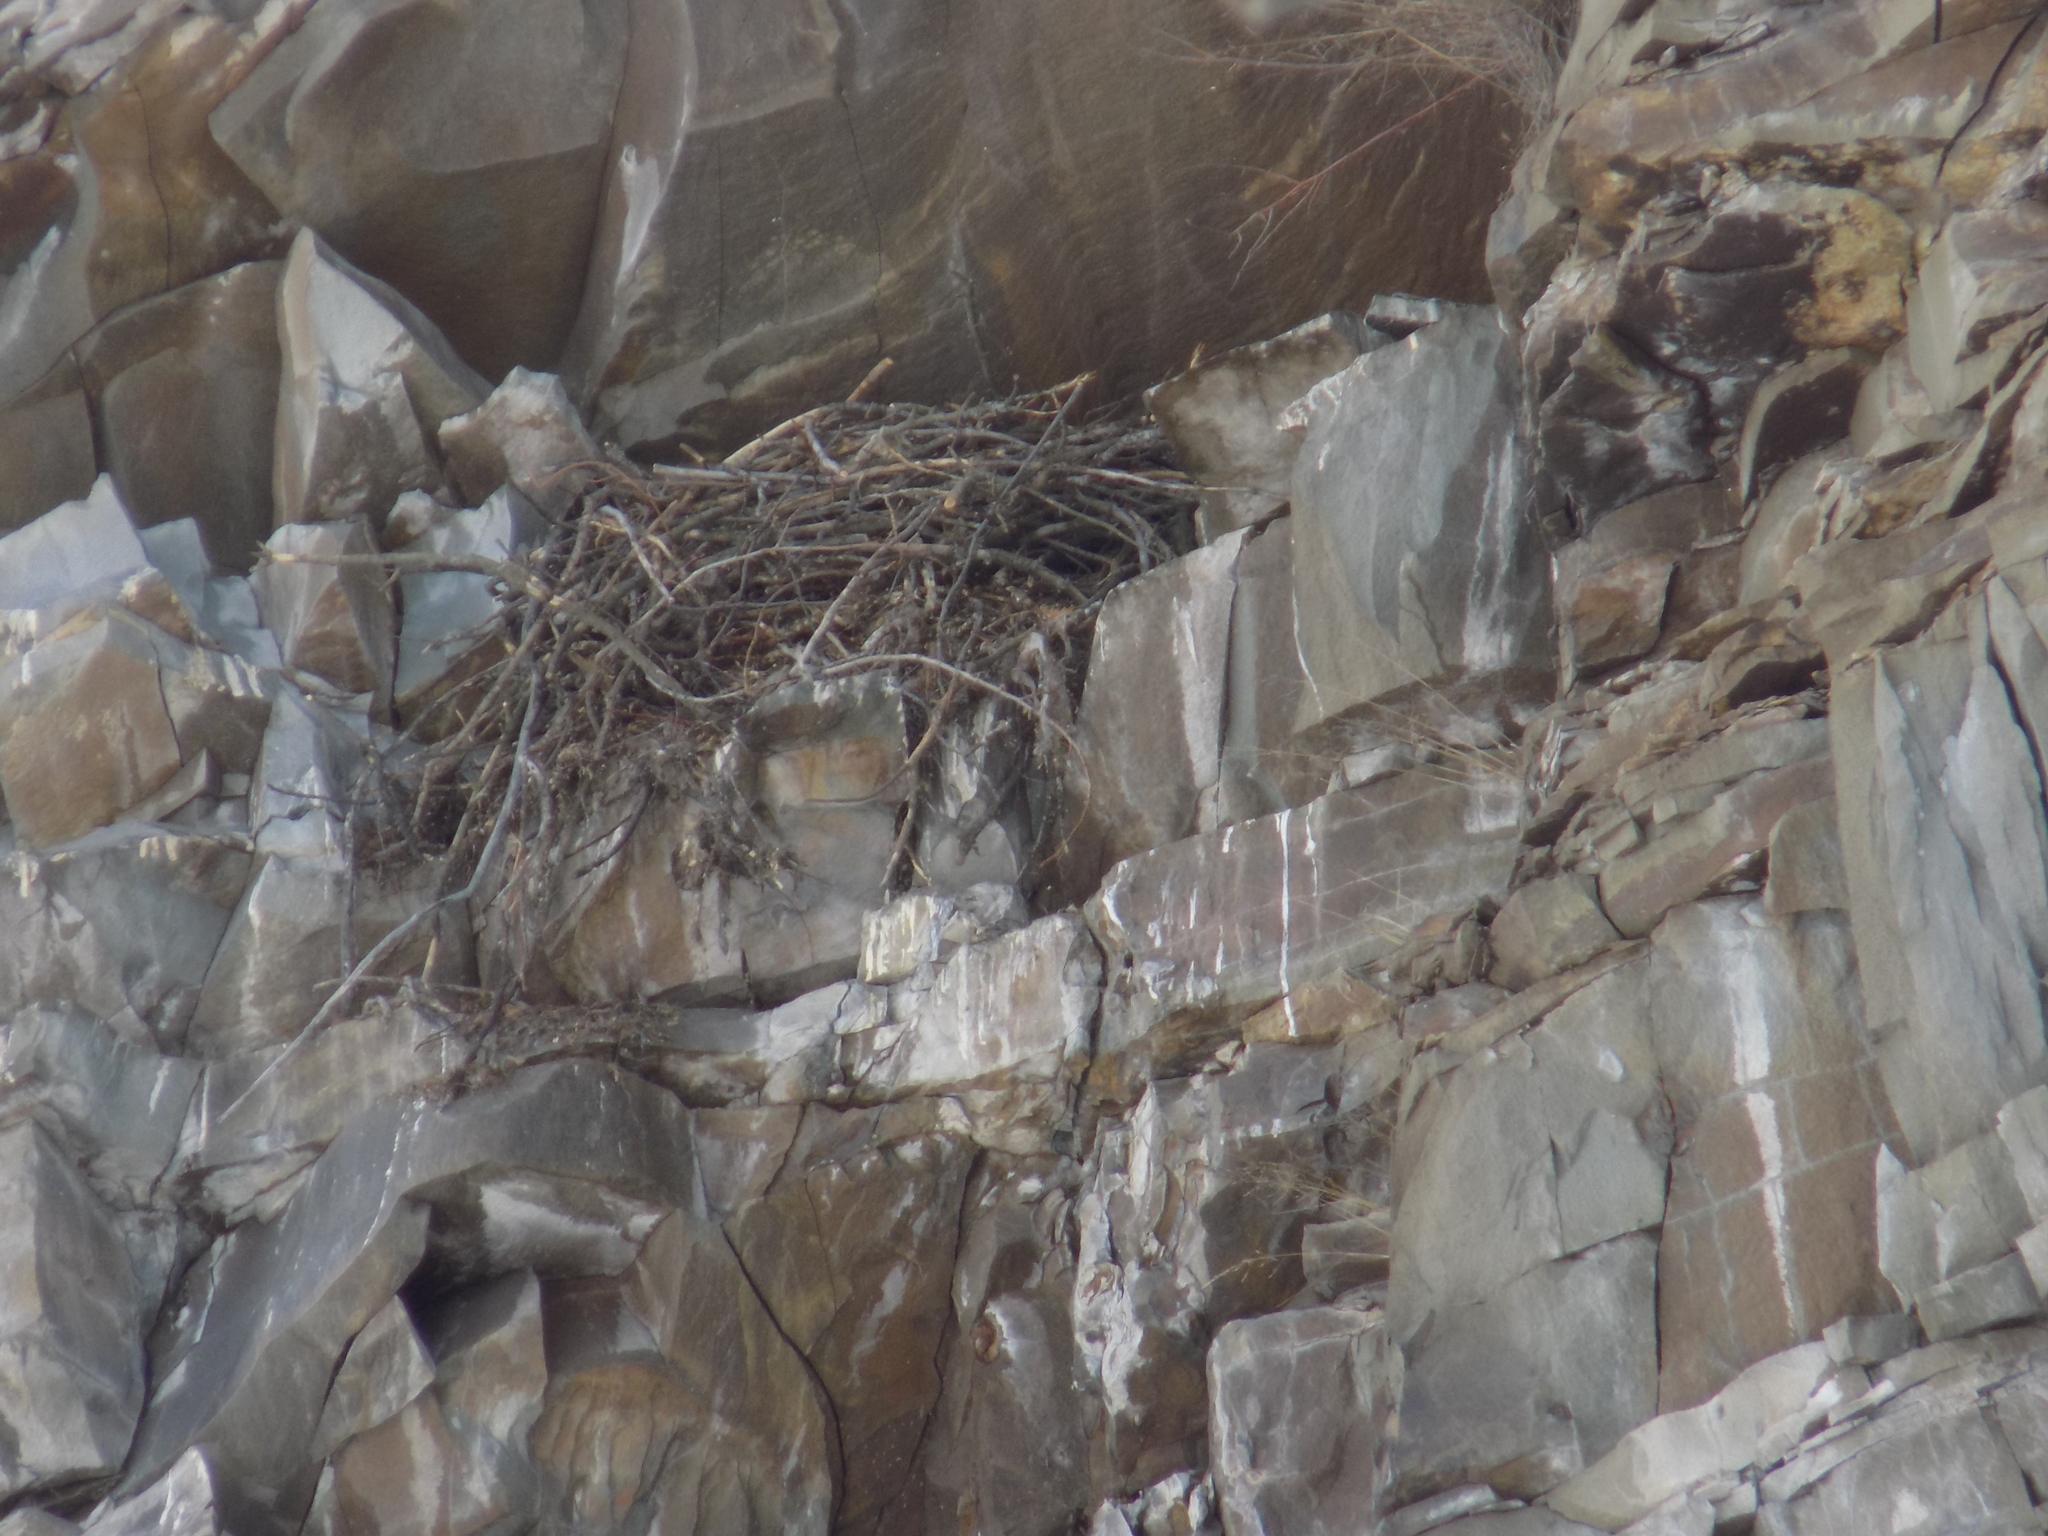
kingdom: Animalia
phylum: Chordata
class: Aves
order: Passeriformes
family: Corvidae
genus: Corvus
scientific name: Corvus corax
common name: Common raven
